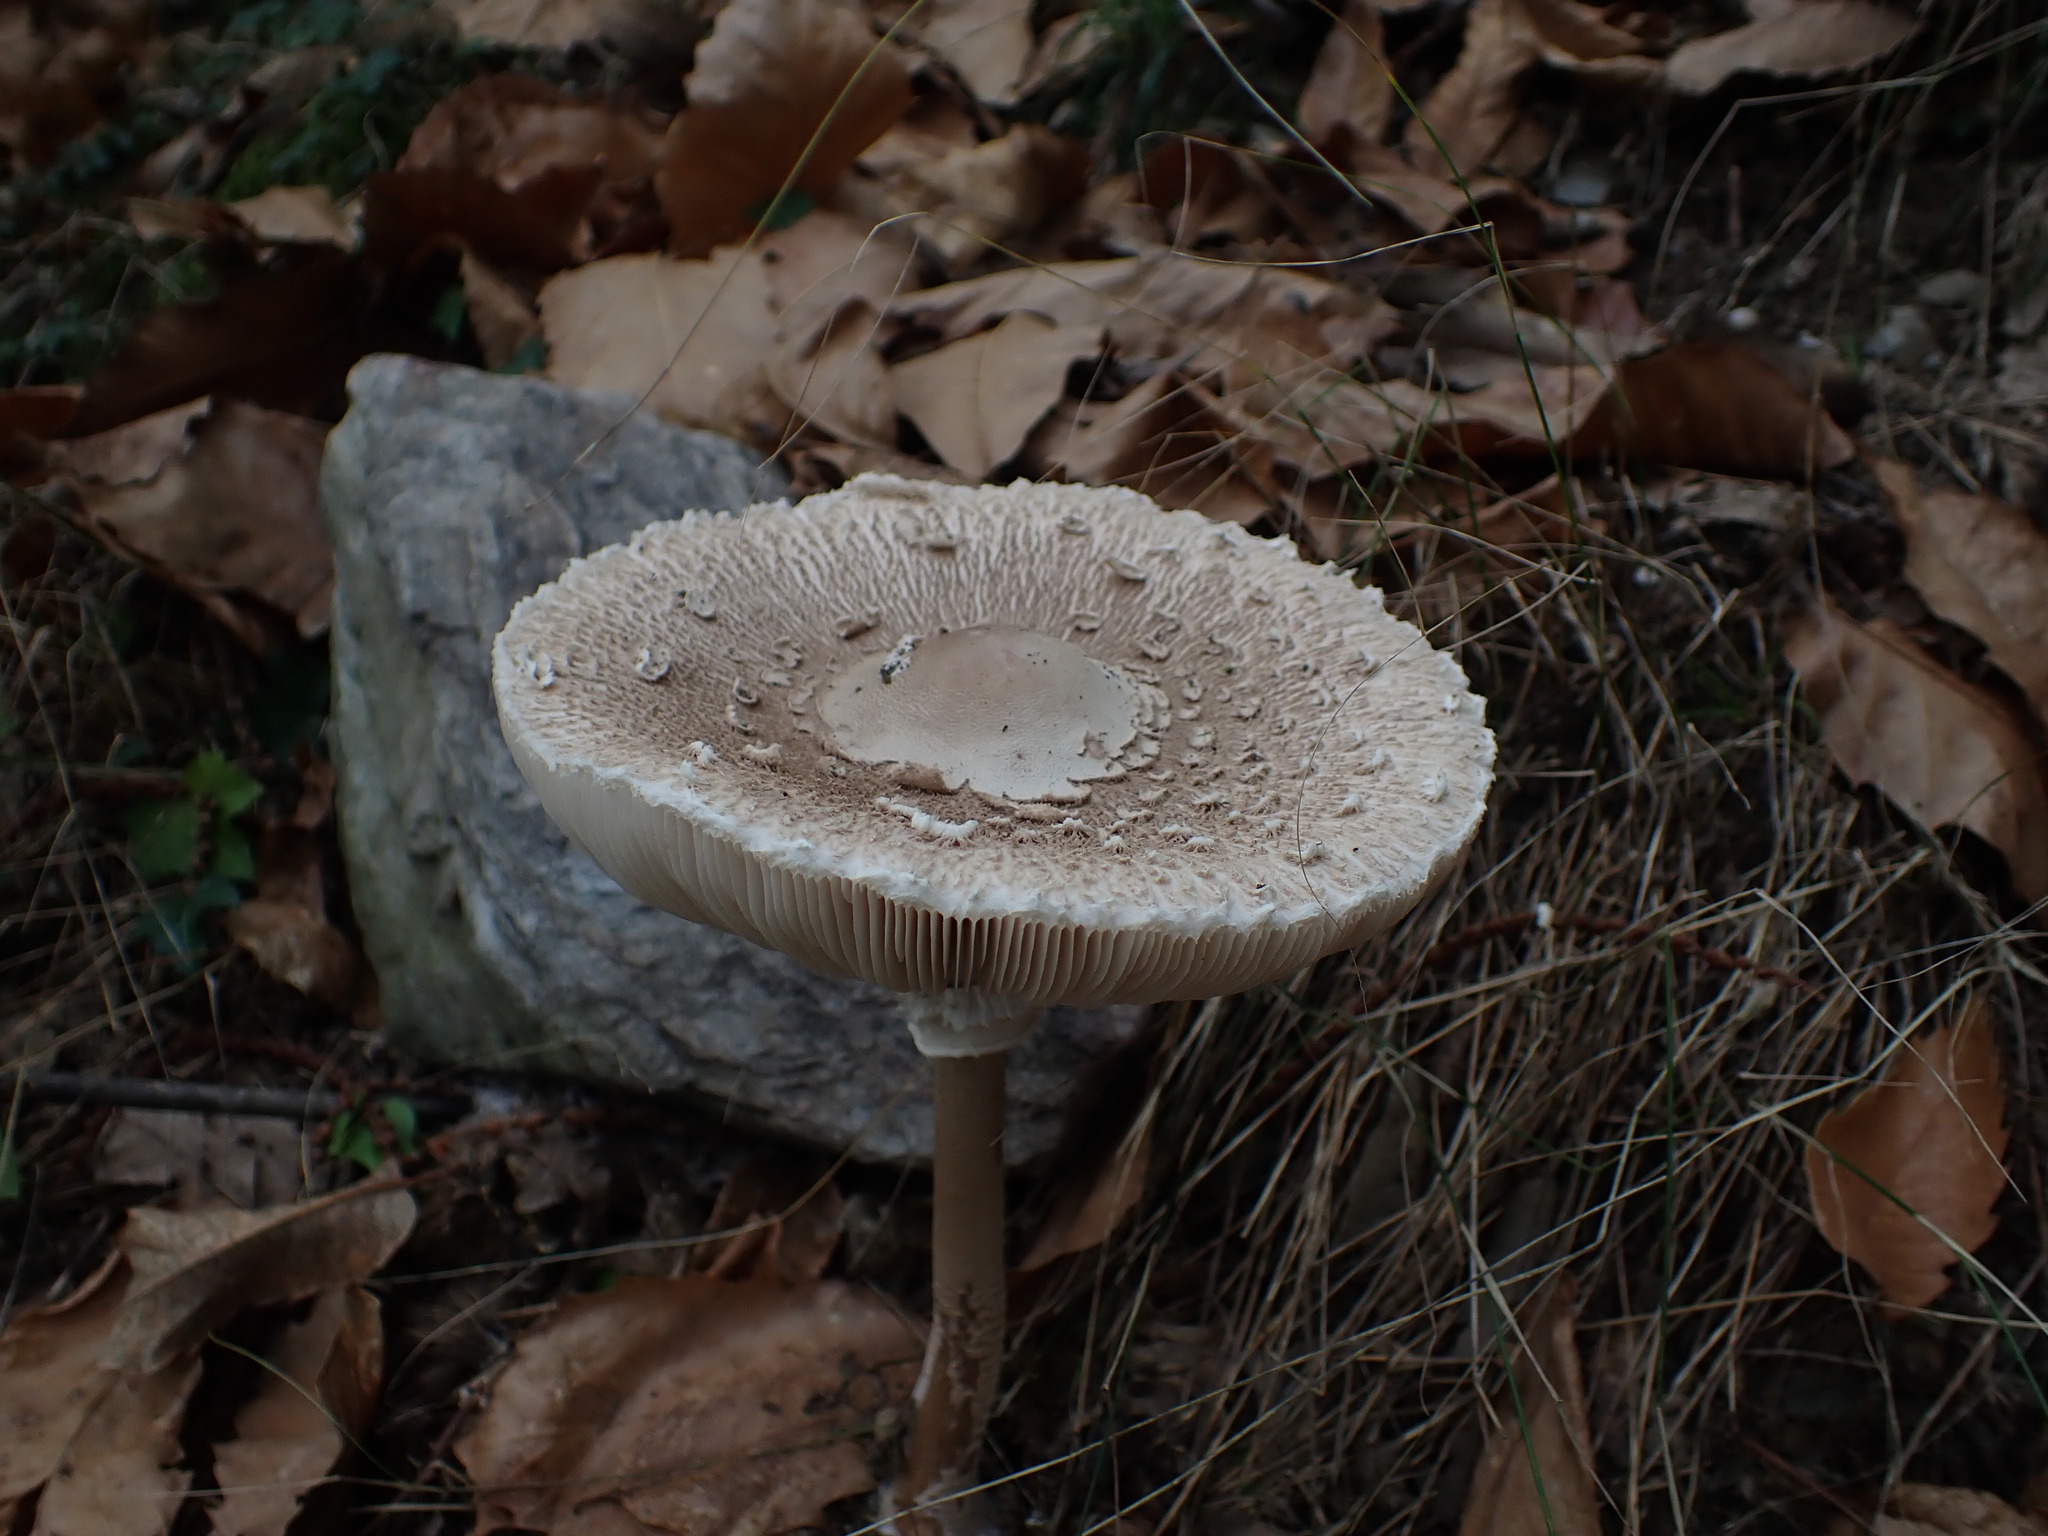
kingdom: Fungi
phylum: Basidiomycota
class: Agaricomycetes
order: Agaricales
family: Agaricaceae
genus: Macrolepiota
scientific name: Macrolepiota procera
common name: Parasol
